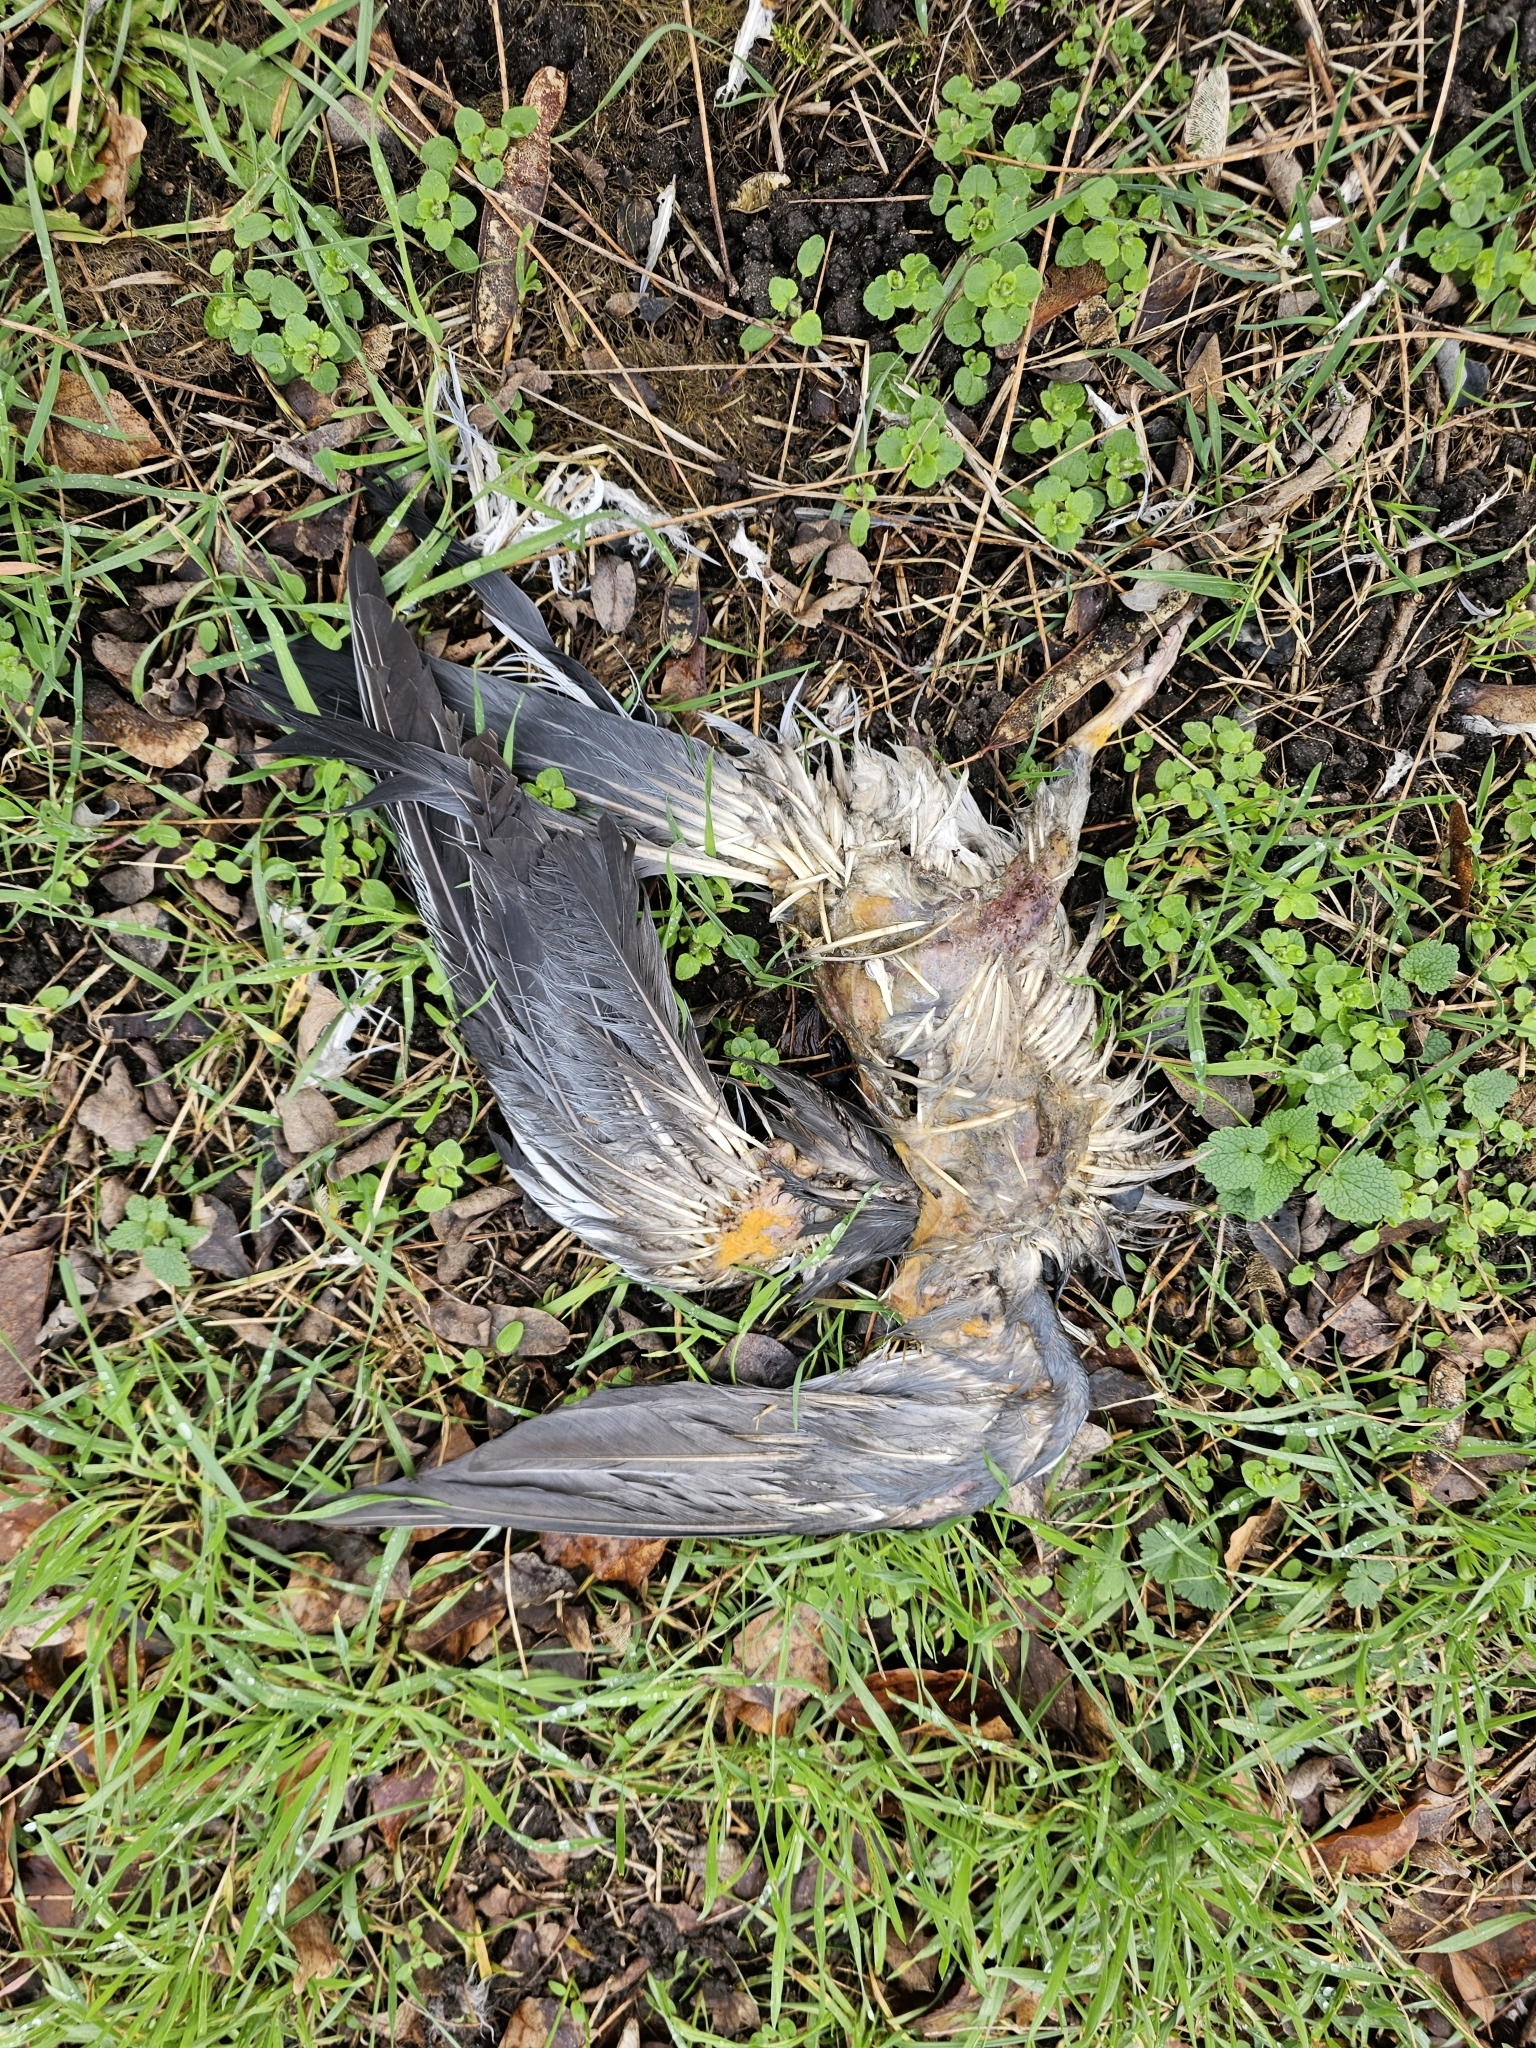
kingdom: Animalia
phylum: Chordata
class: Aves
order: Columbiformes
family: Columbidae
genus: Columba
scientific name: Columba palumbus
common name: Common wood pigeon
